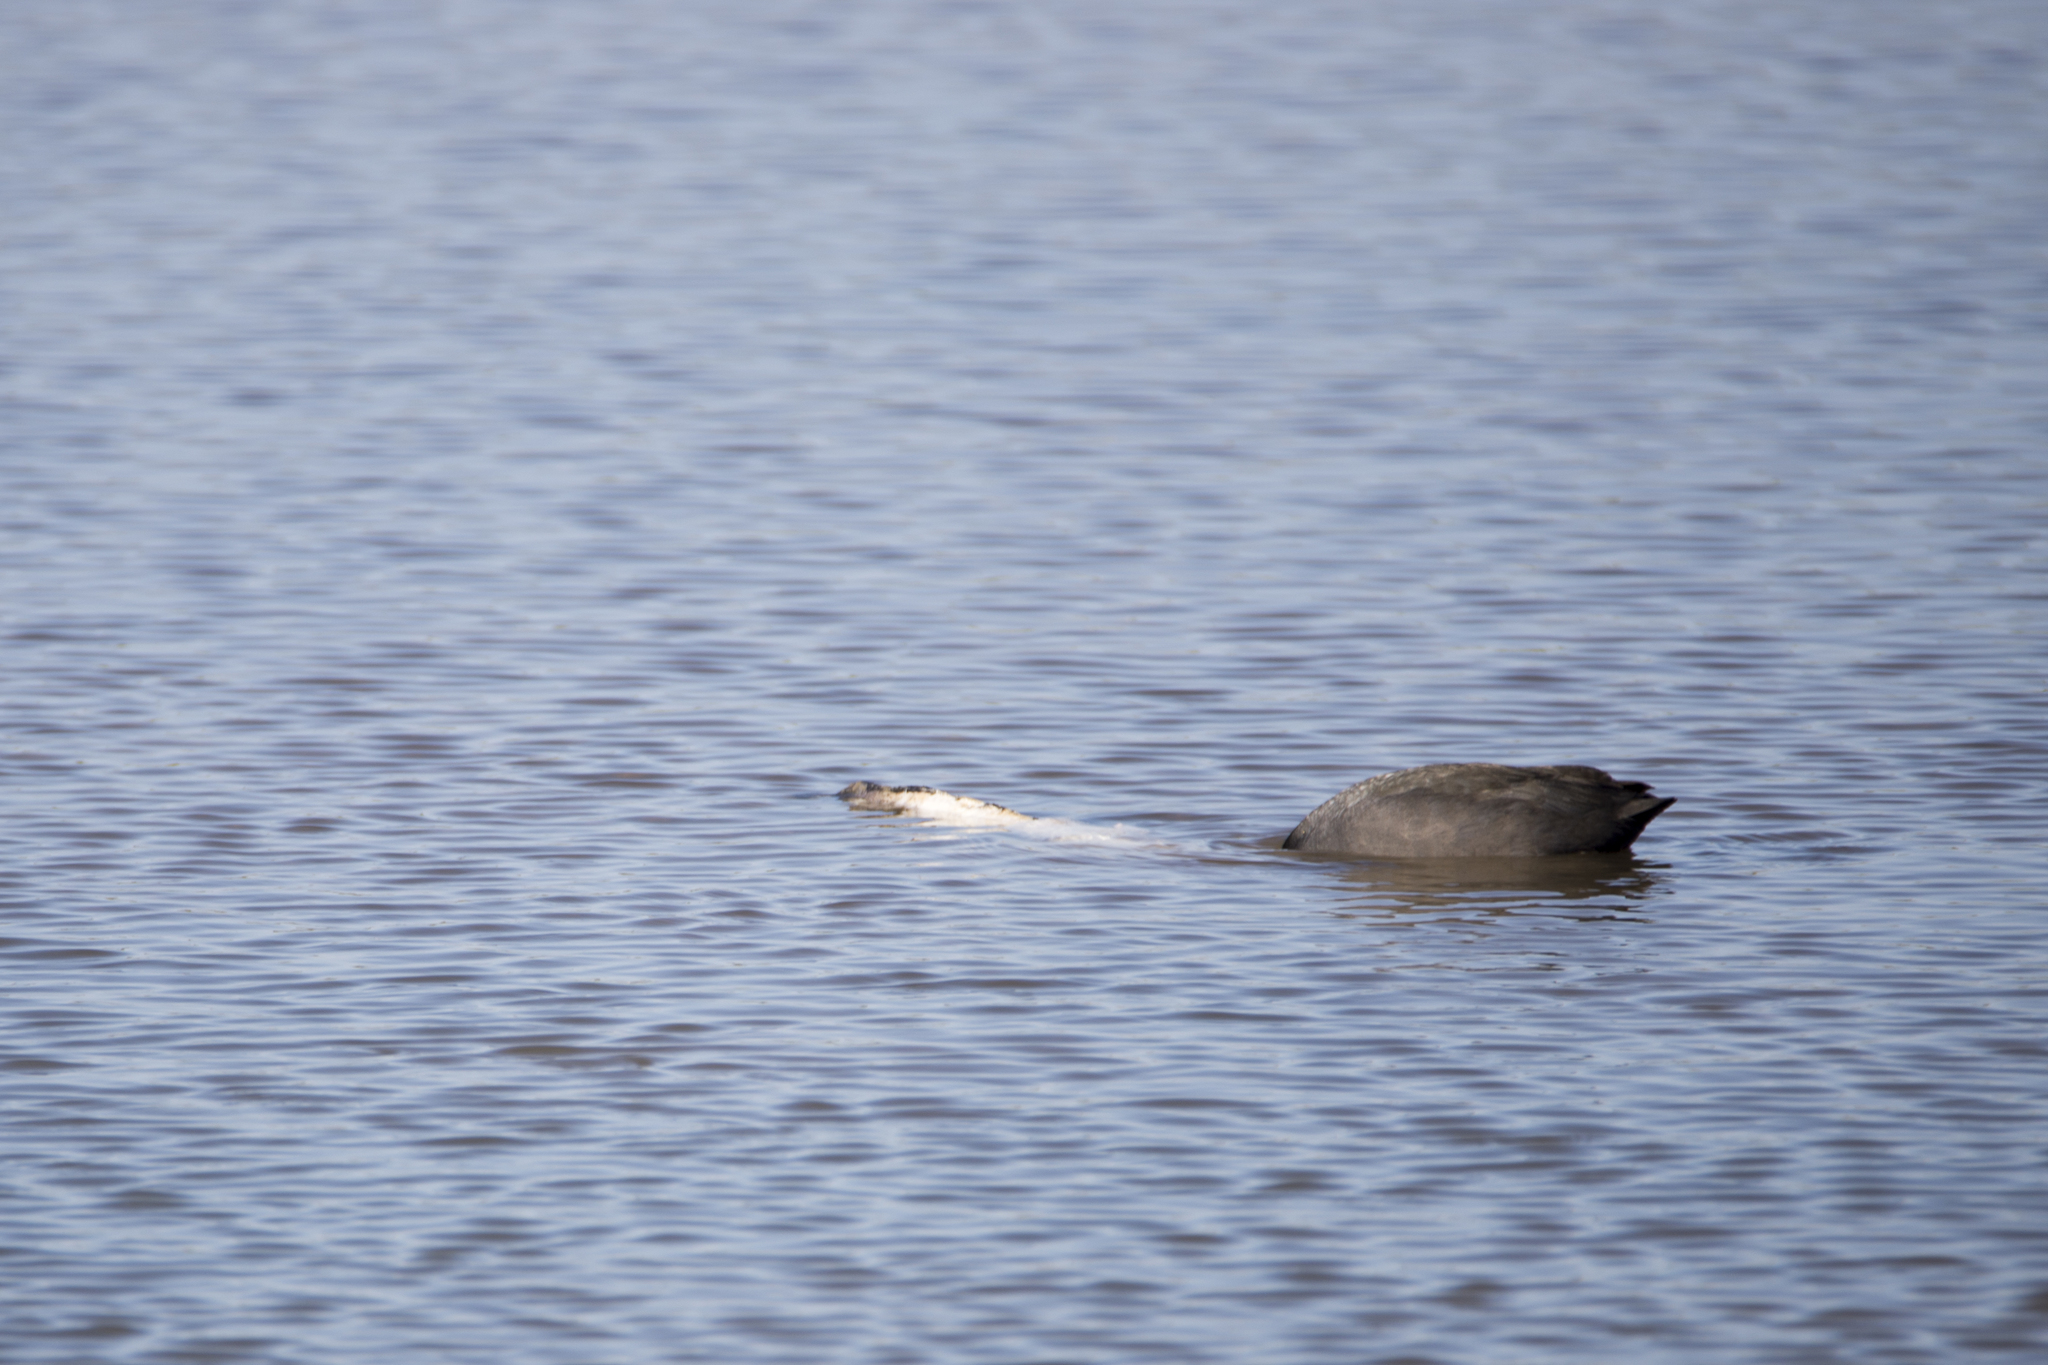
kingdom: Animalia
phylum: Chordata
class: Aves
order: Gruiformes
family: Rallidae
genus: Fulica
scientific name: Fulica atra
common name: Eurasian coot
